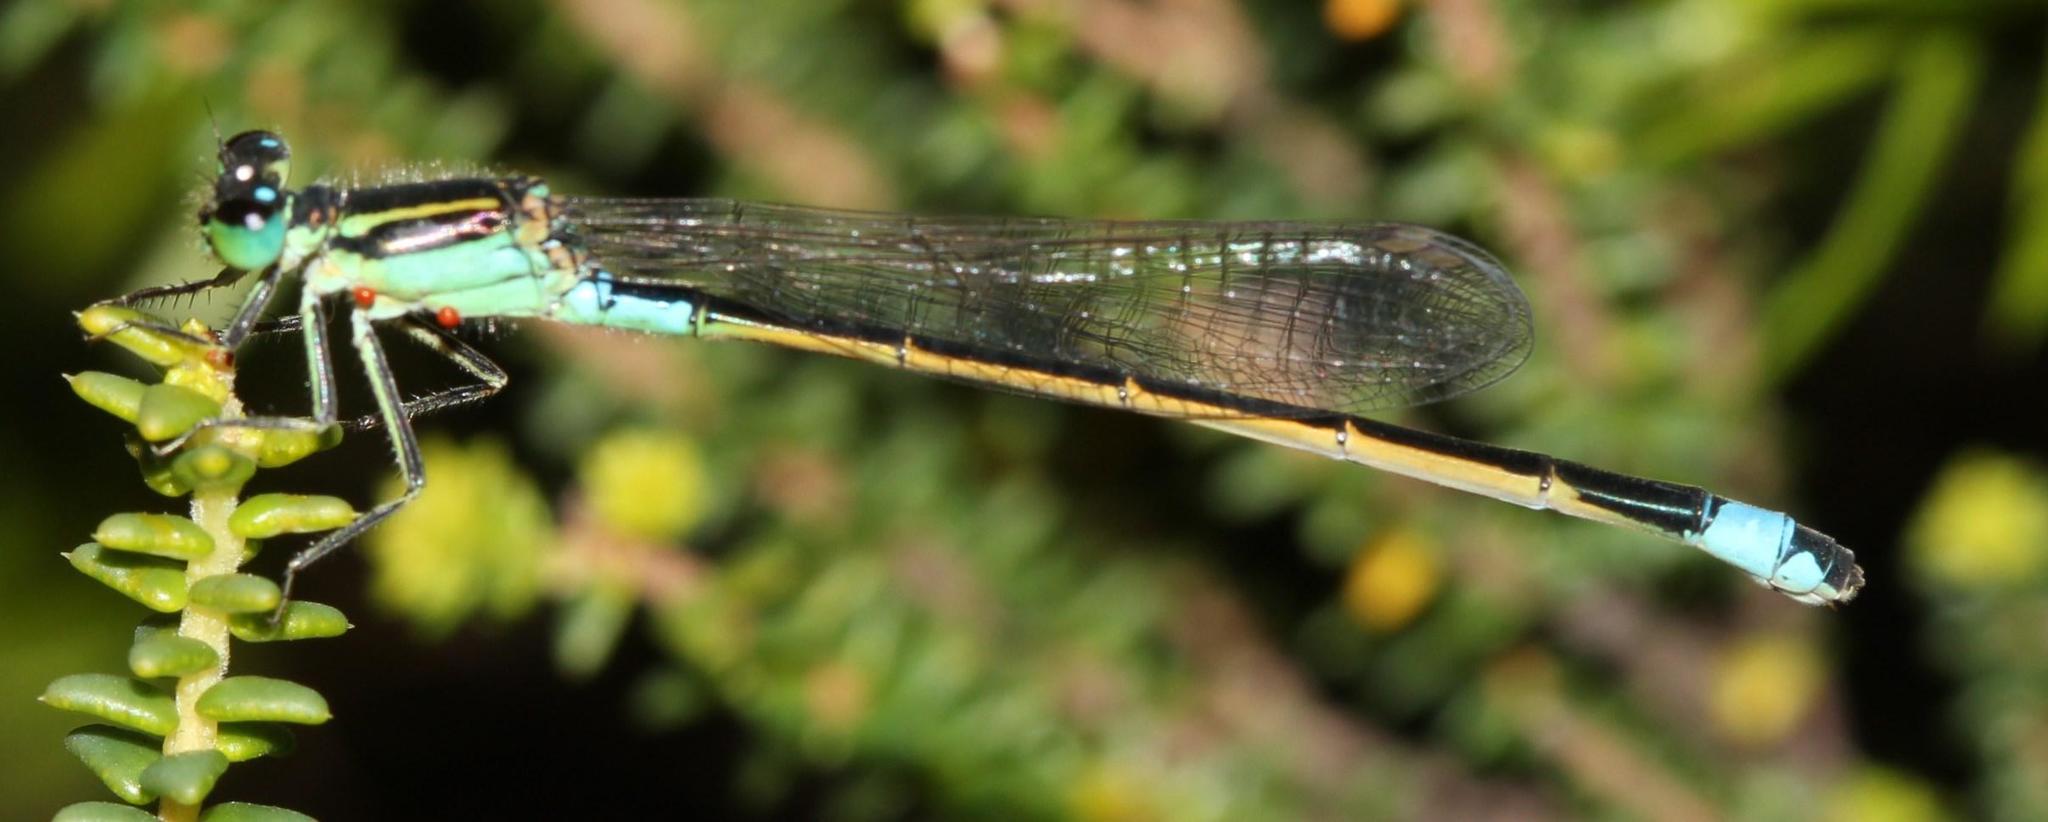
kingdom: Animalia
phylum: Arthropoda
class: Insecta
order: Odonata
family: Coenagrionidae
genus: Ischnura
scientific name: Ischnura senegalensis
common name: Tropical bluetail
